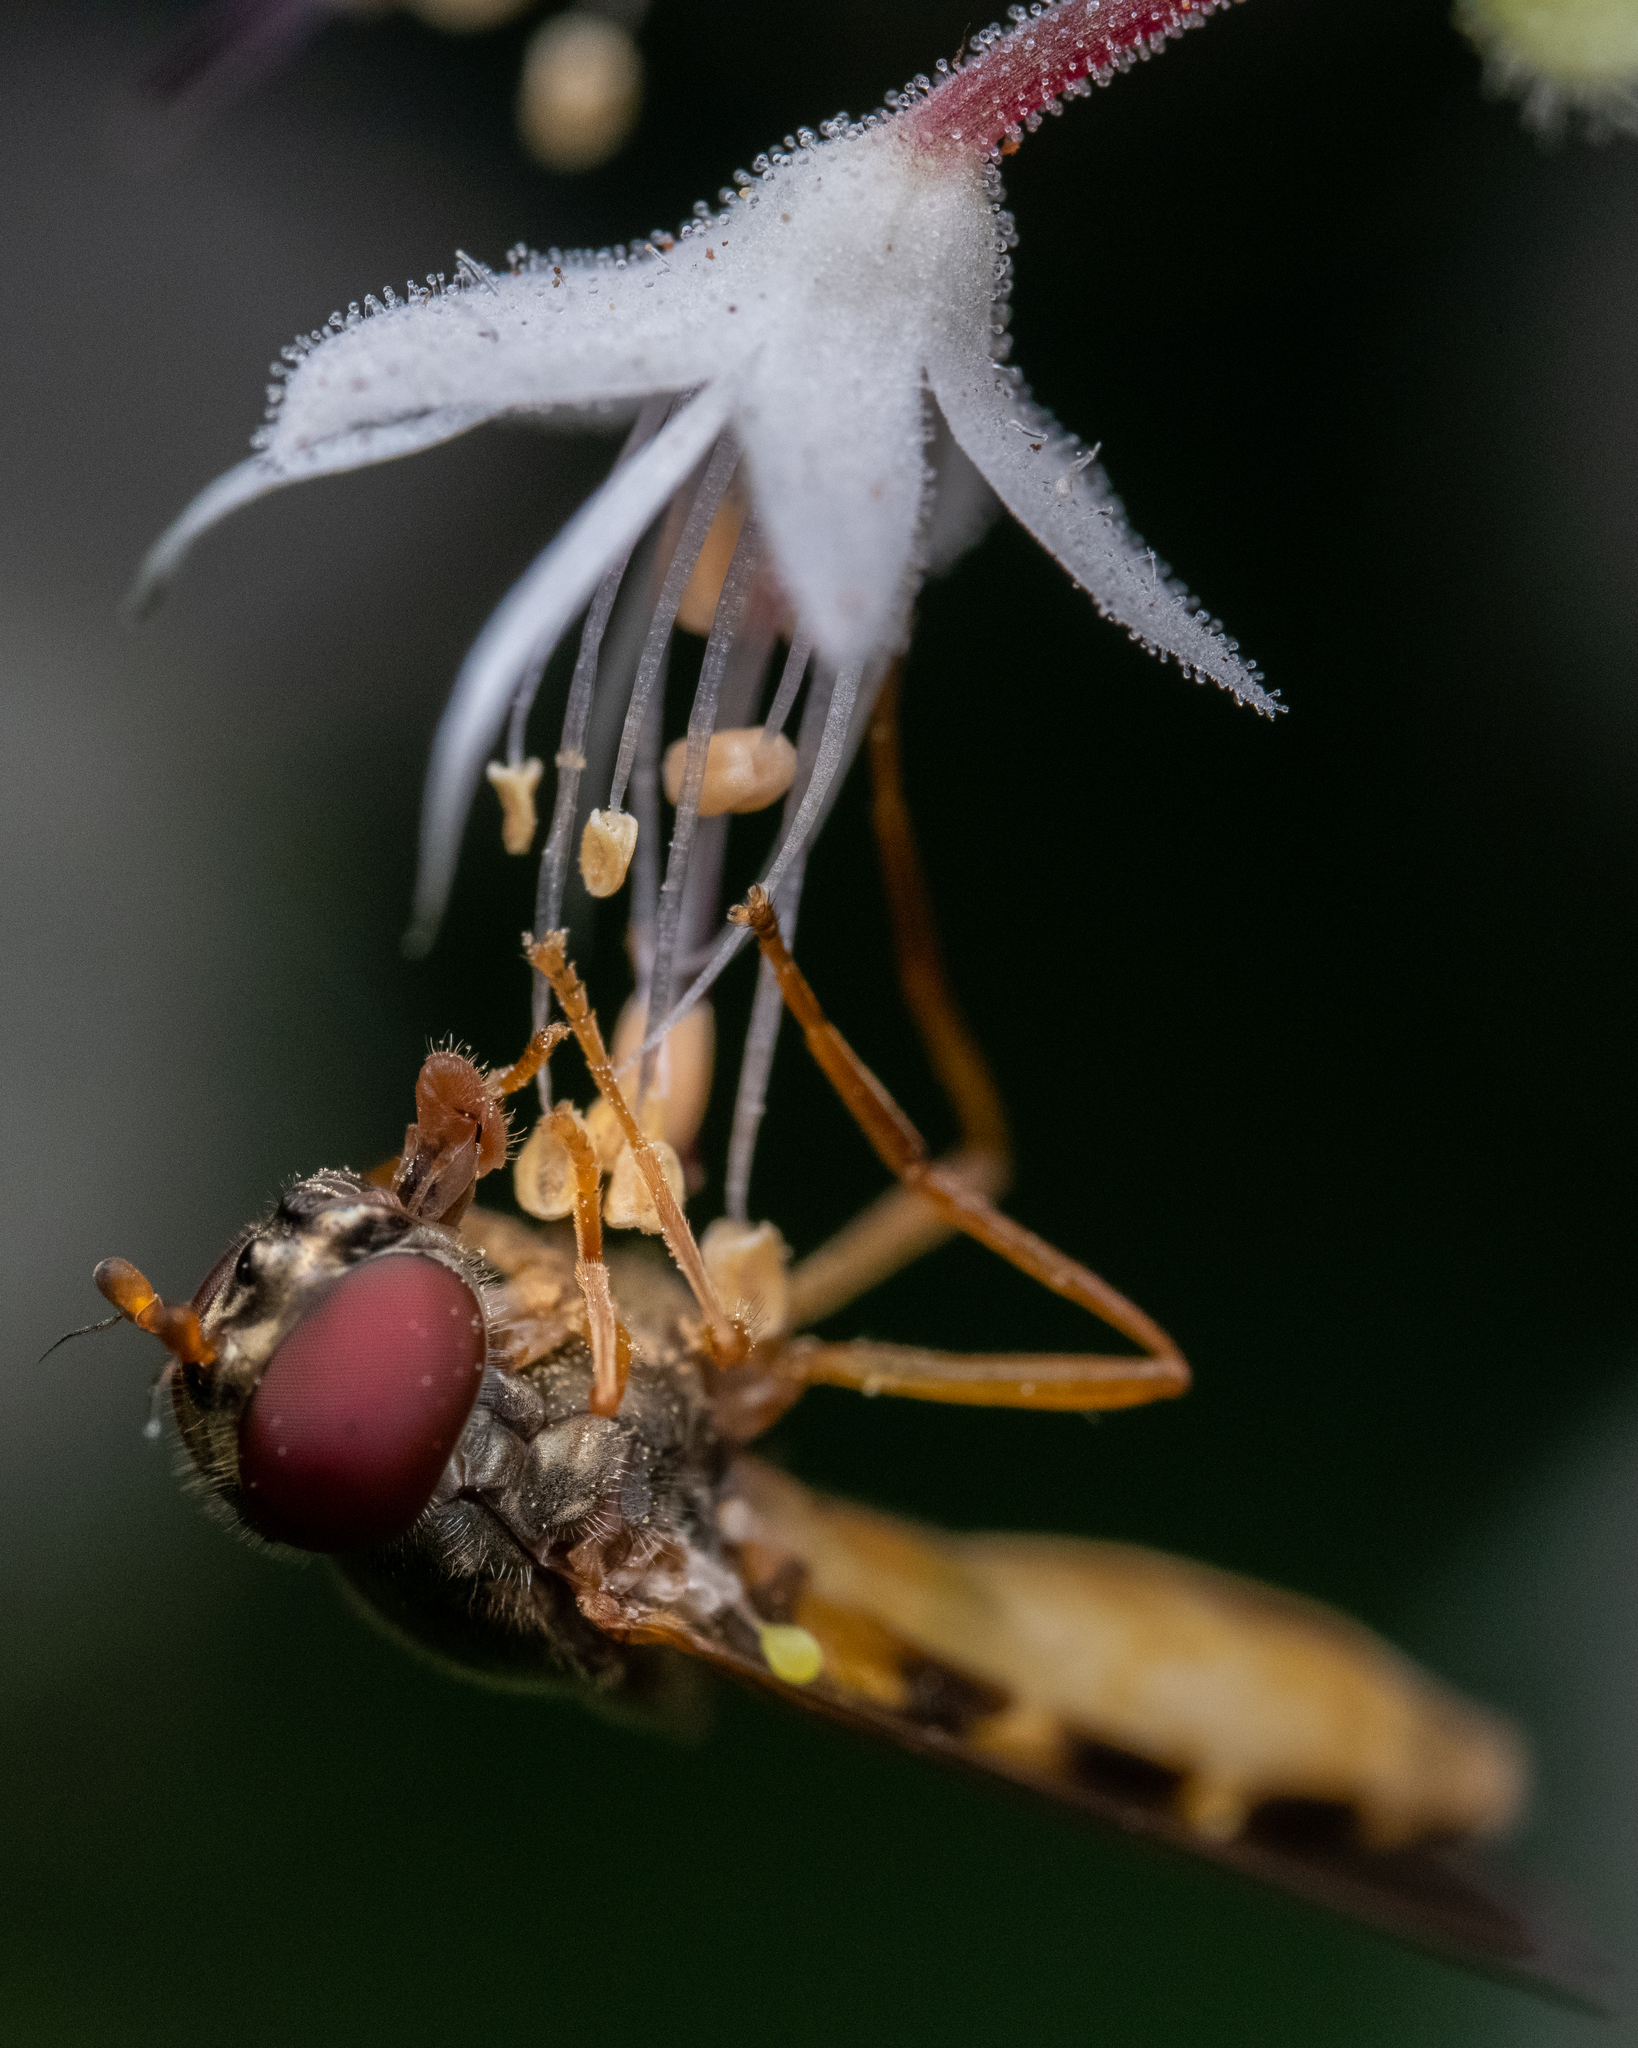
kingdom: Animalia
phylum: Arthropoda
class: Insecta
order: Diptera
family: Syrphidae
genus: Melanostoma
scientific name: Melanostoma mellina
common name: Hover fly
